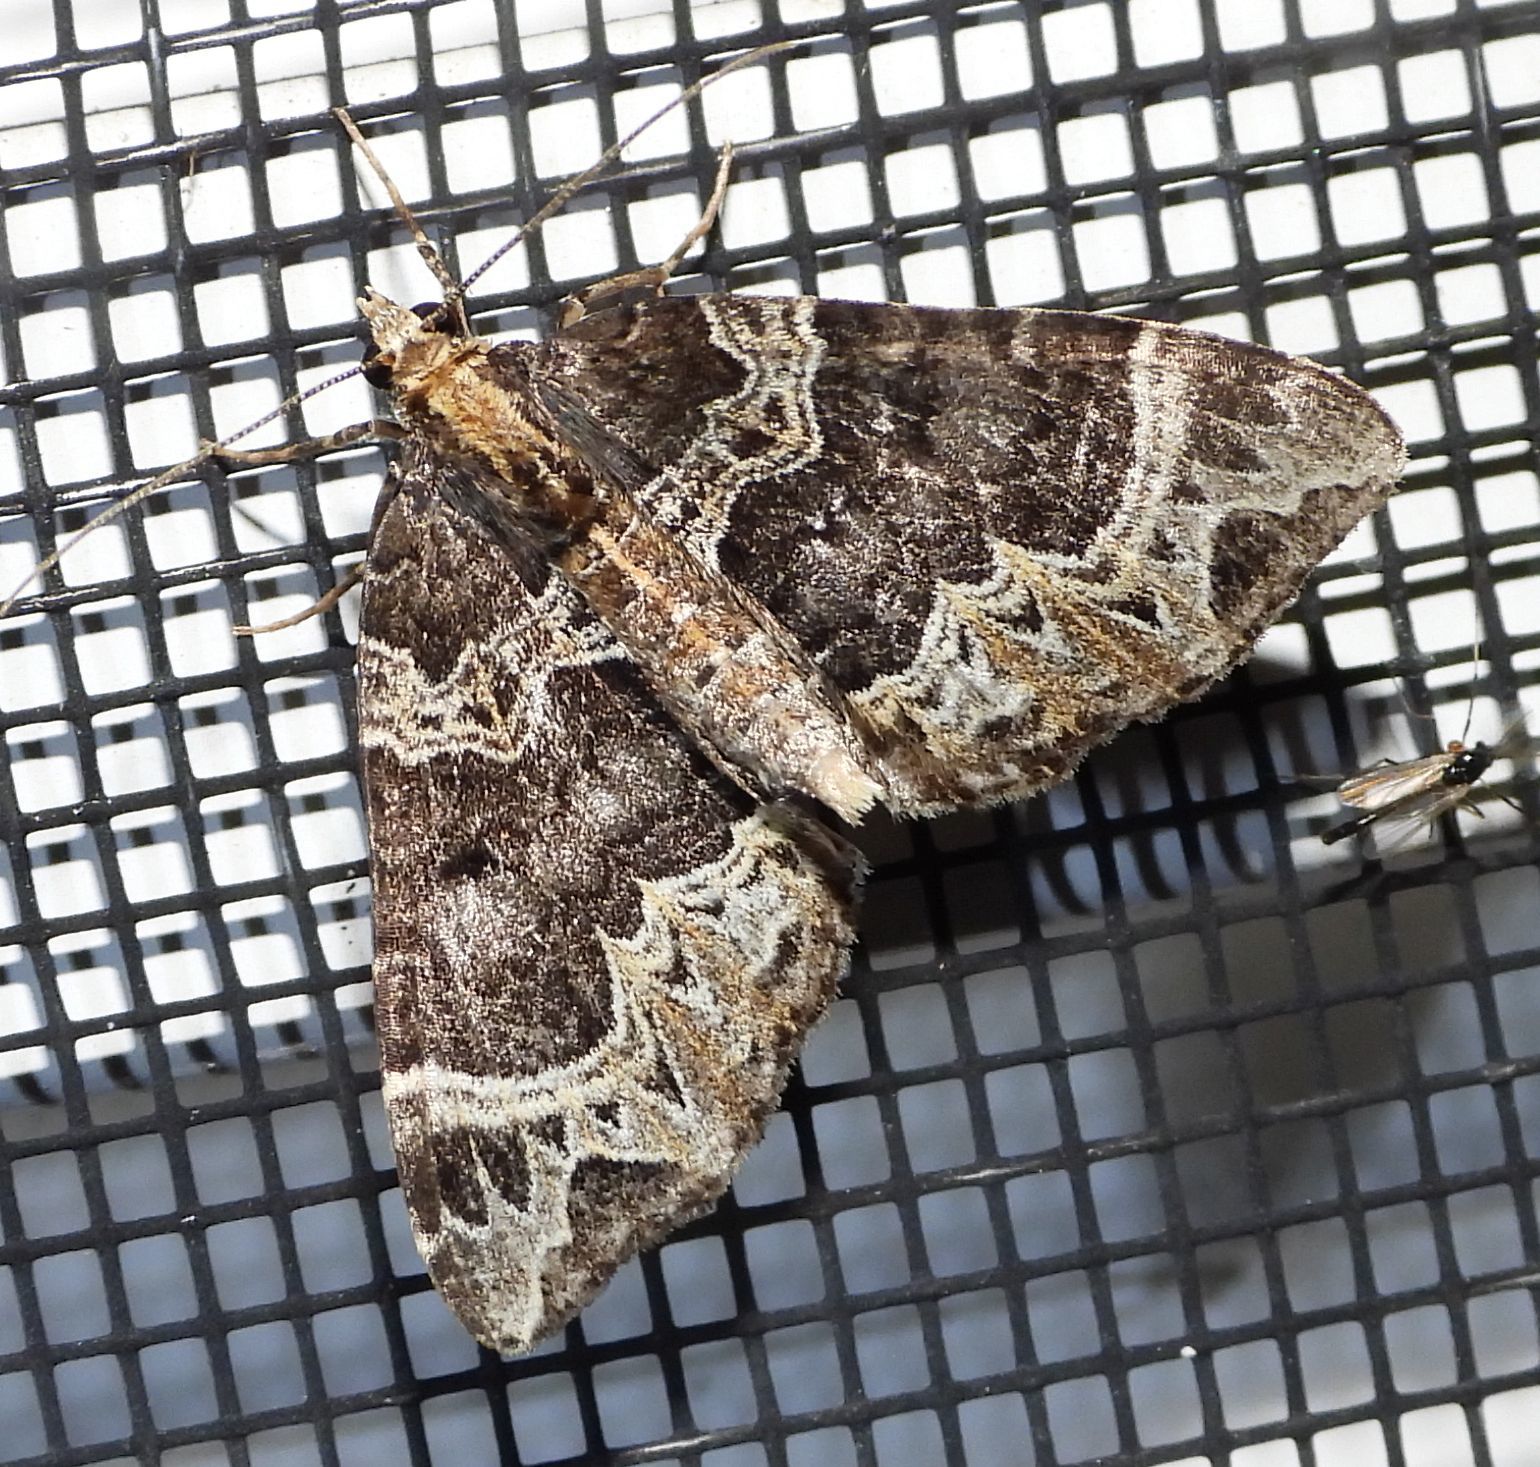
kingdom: Animalia
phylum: Arthropoda
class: Insecta
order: Lepidoptera
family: Geometridae
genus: Ecliptopera
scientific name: Ecliptopera silaceata
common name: Small phoenix
